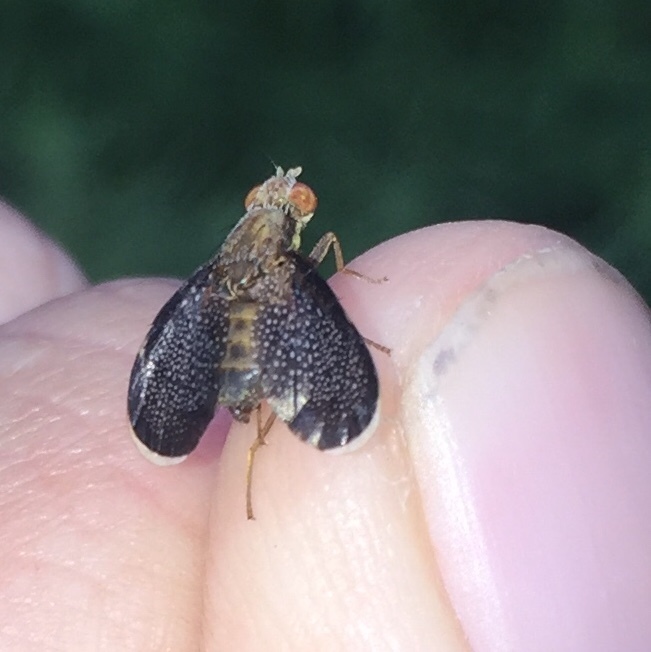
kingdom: Animalia
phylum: Arthropoda
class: Insecta
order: Diptera
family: Tephritidae
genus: Eutreta
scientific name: Eutreta novaeboracensis
